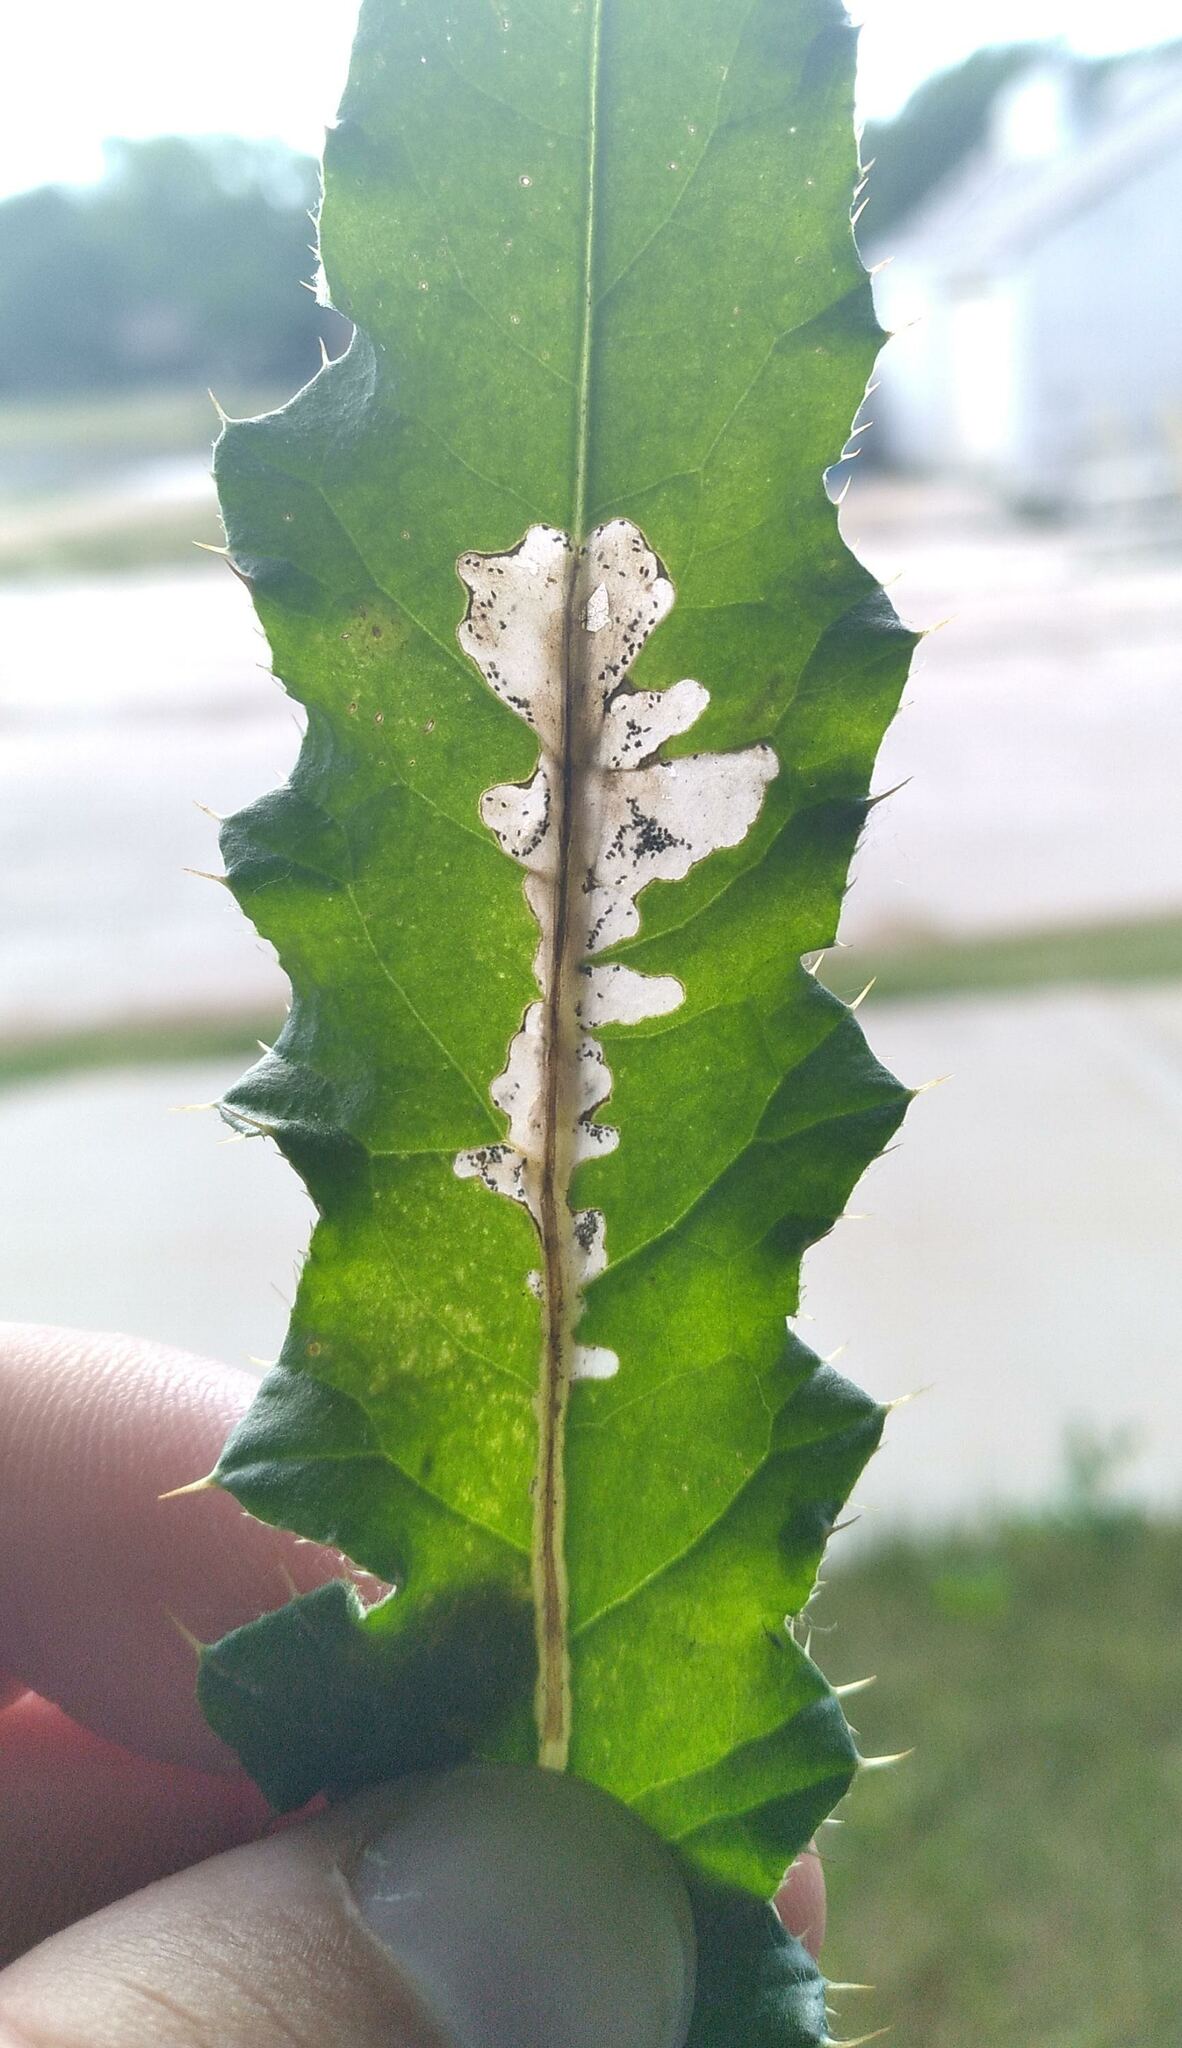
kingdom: Animalia
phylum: Arthropoda
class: Insecta
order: Lepidoptera
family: Gelechiidae
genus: Scrobipalpa
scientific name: Scrobipalpa acuminatella
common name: Pointed groundling
